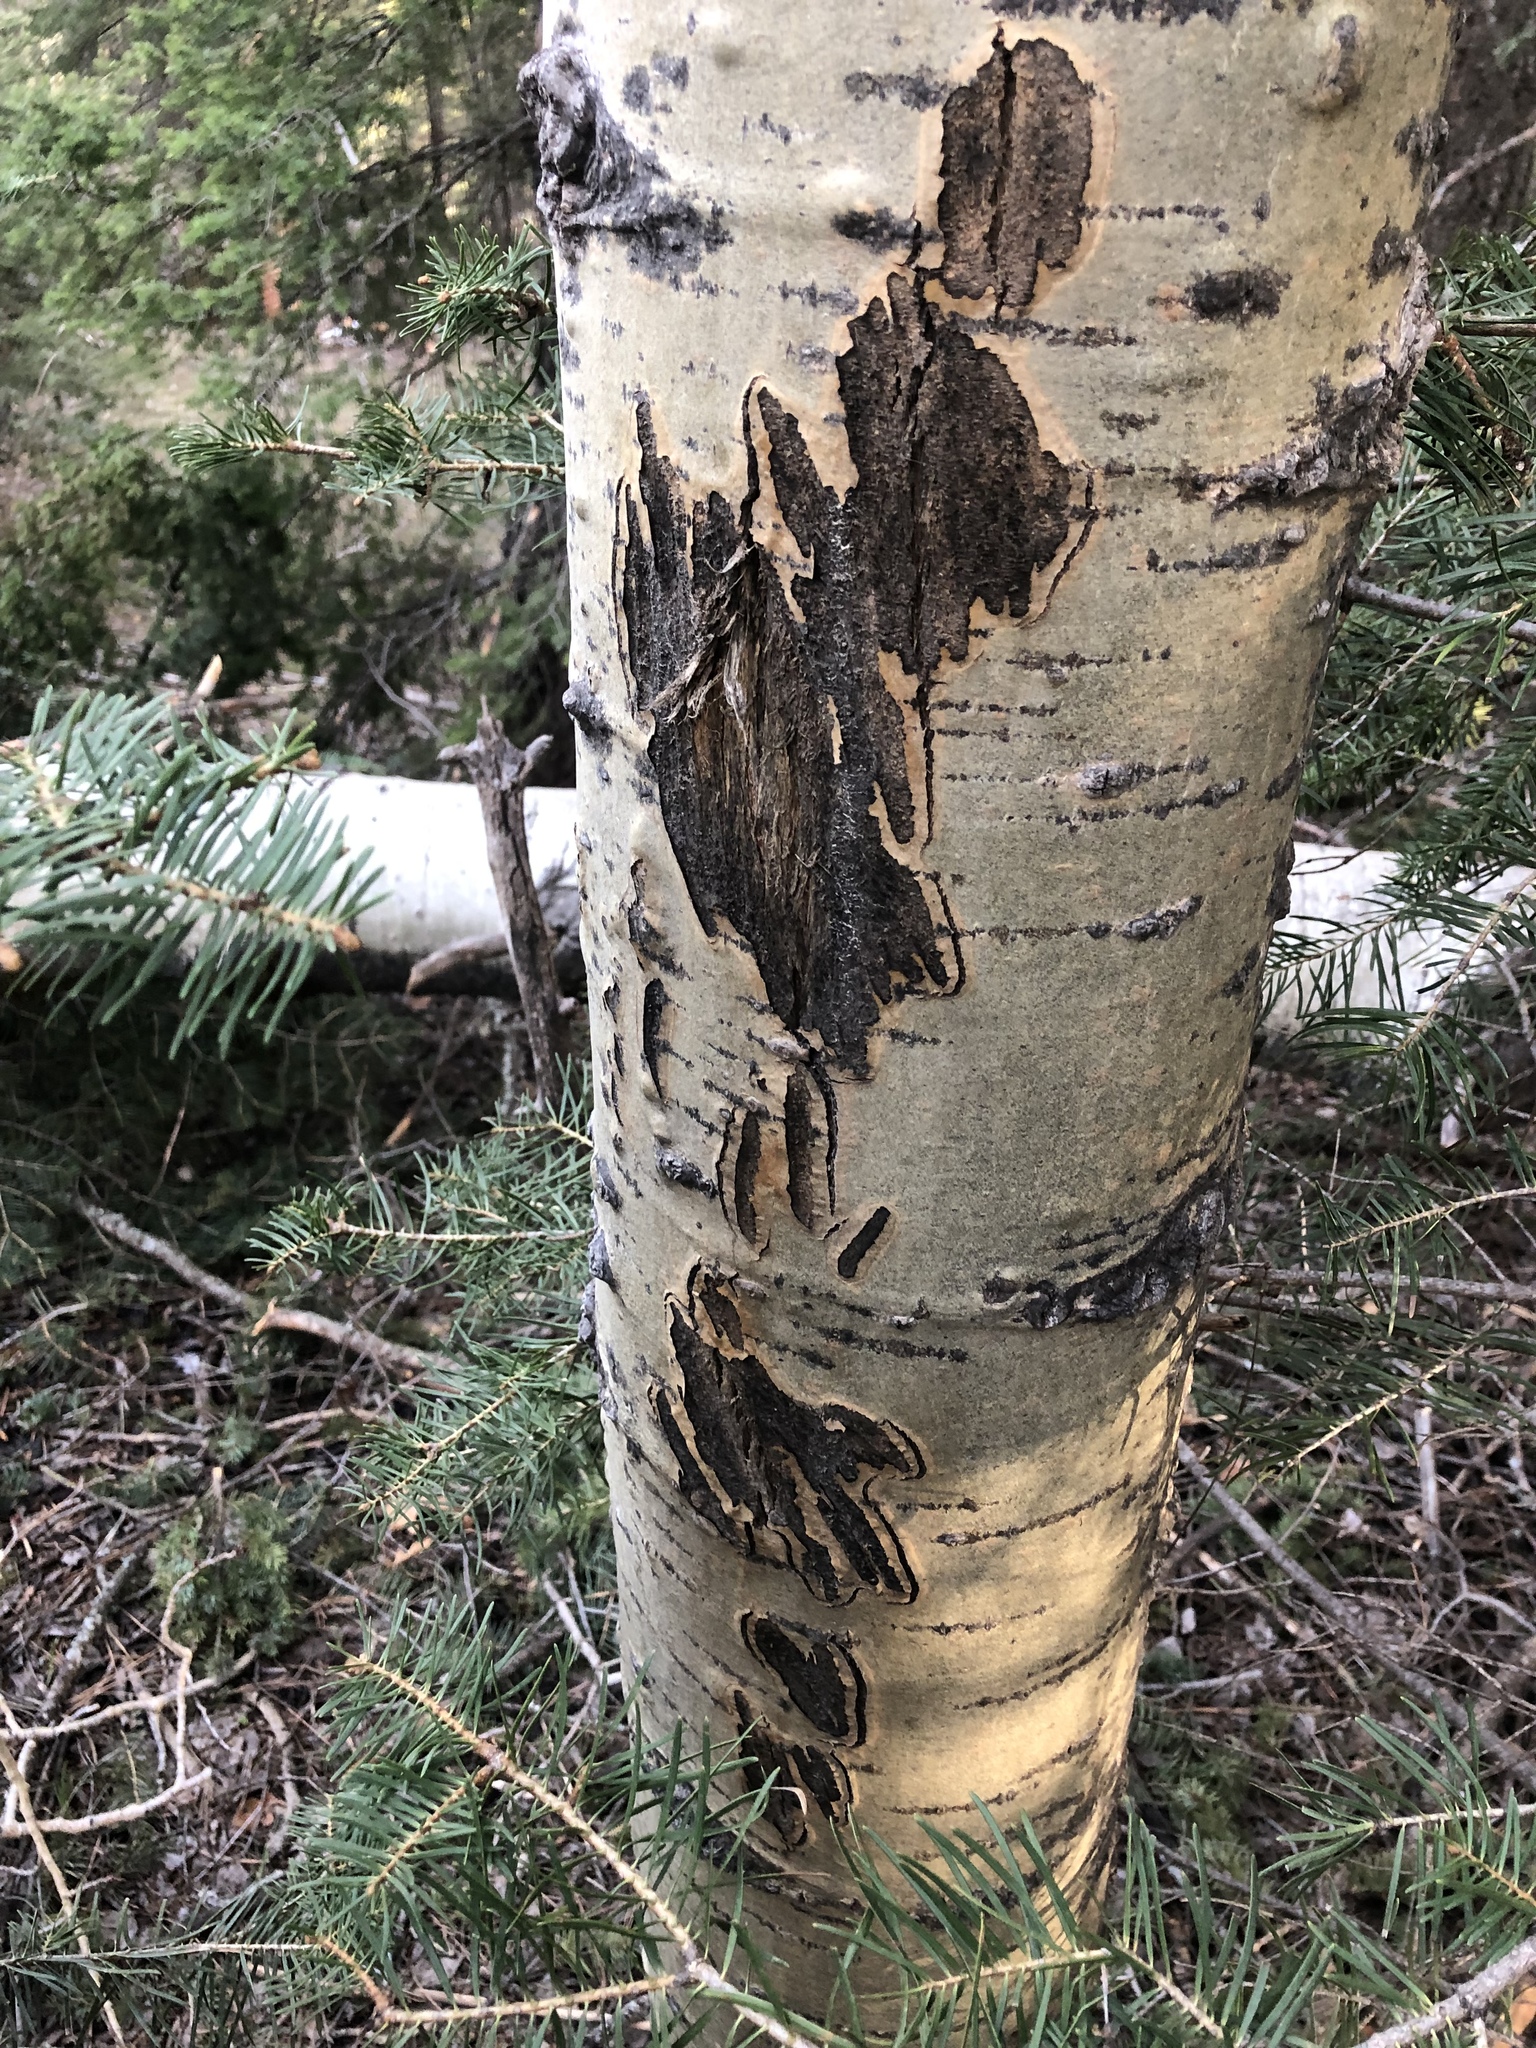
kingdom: Animalia
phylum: Chordata
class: Mammalia
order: Artiodactyla
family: Cervidae
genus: Odocoileus
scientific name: Odocoileus hemionus
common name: Mule deer
